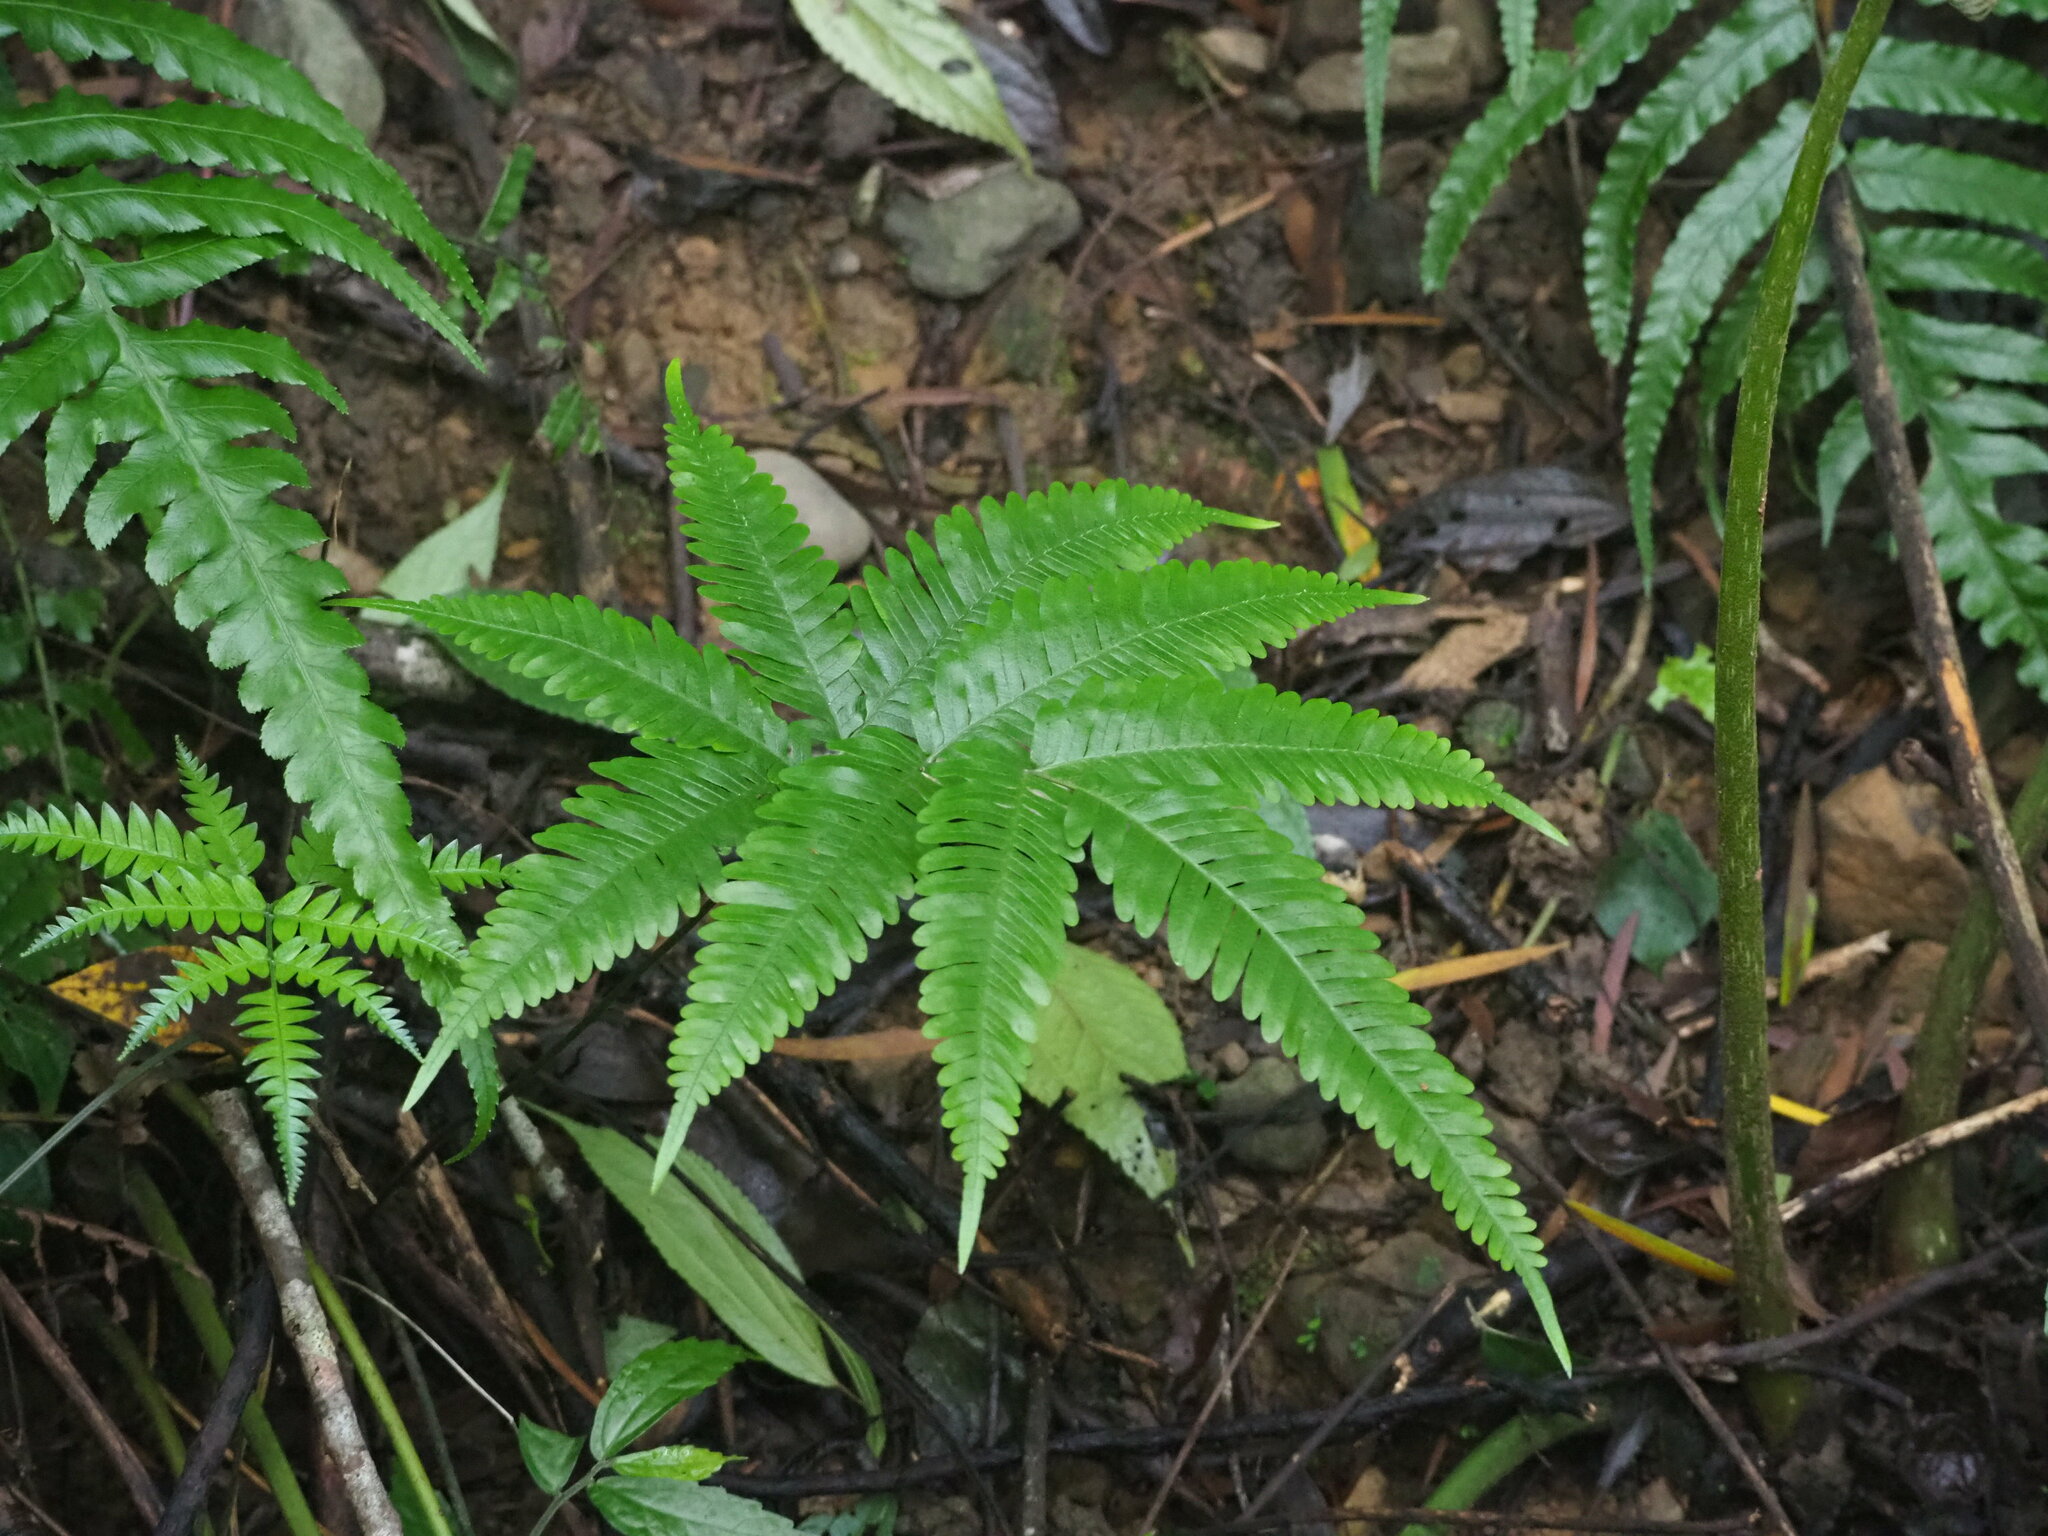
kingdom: Plantae
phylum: Tracheophyta
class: Polypodiopsida
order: Polypodiales
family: Pteridaceae
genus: Pteris
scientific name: Pteris fauriei
